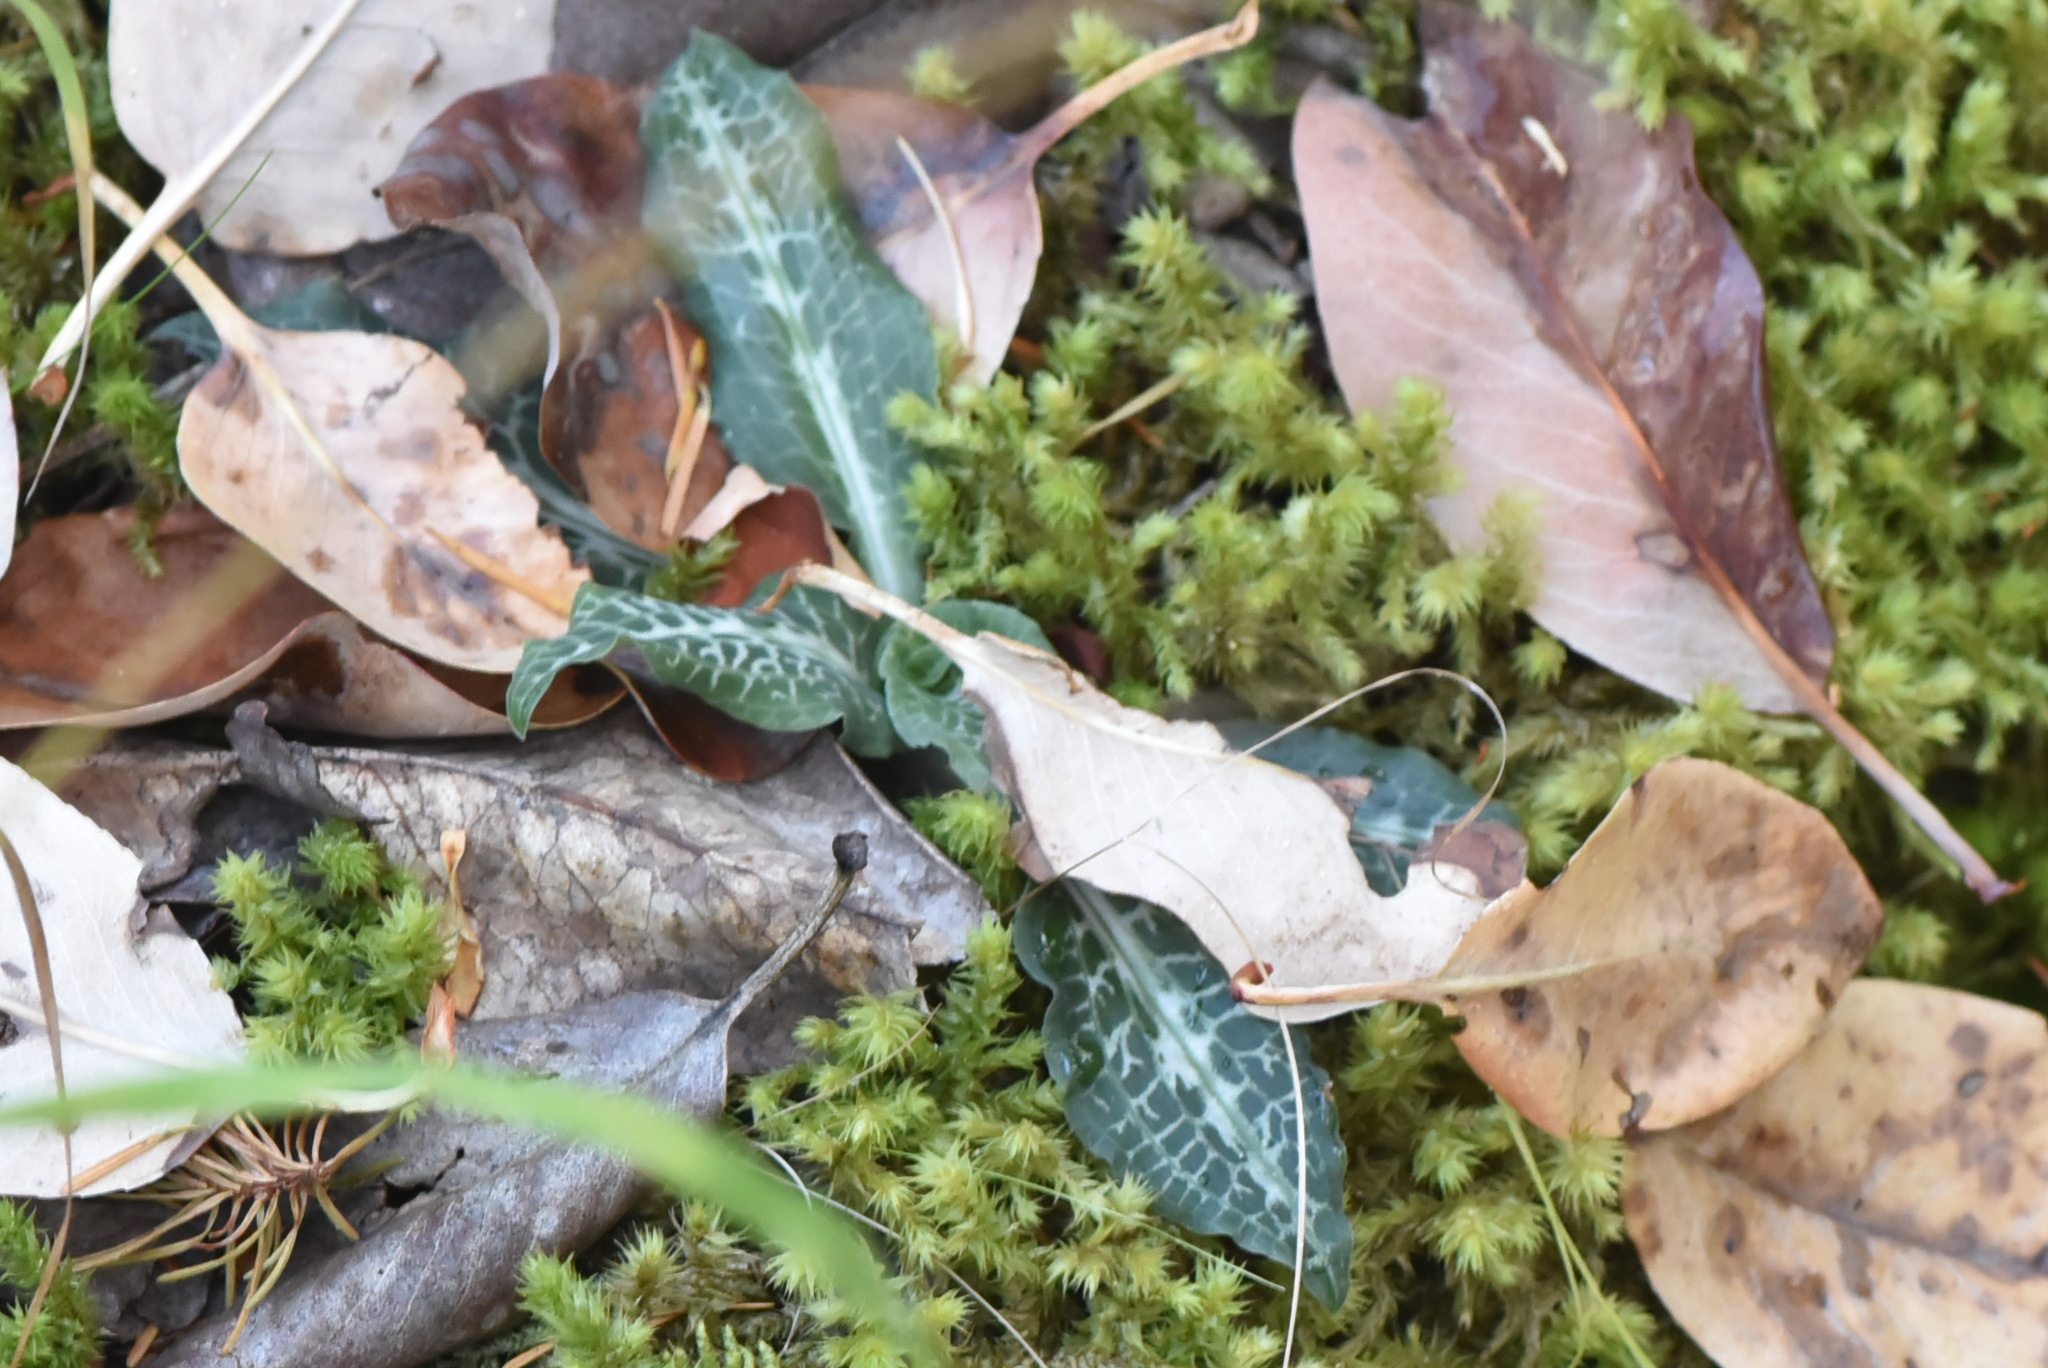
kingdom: Plantae
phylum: Tracheophyta
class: Liliopsida
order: Asparagales
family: Orchidaceae
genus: Goodyera
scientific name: Goodyera oblongifolia
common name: Giant rattlesnake-plantain
